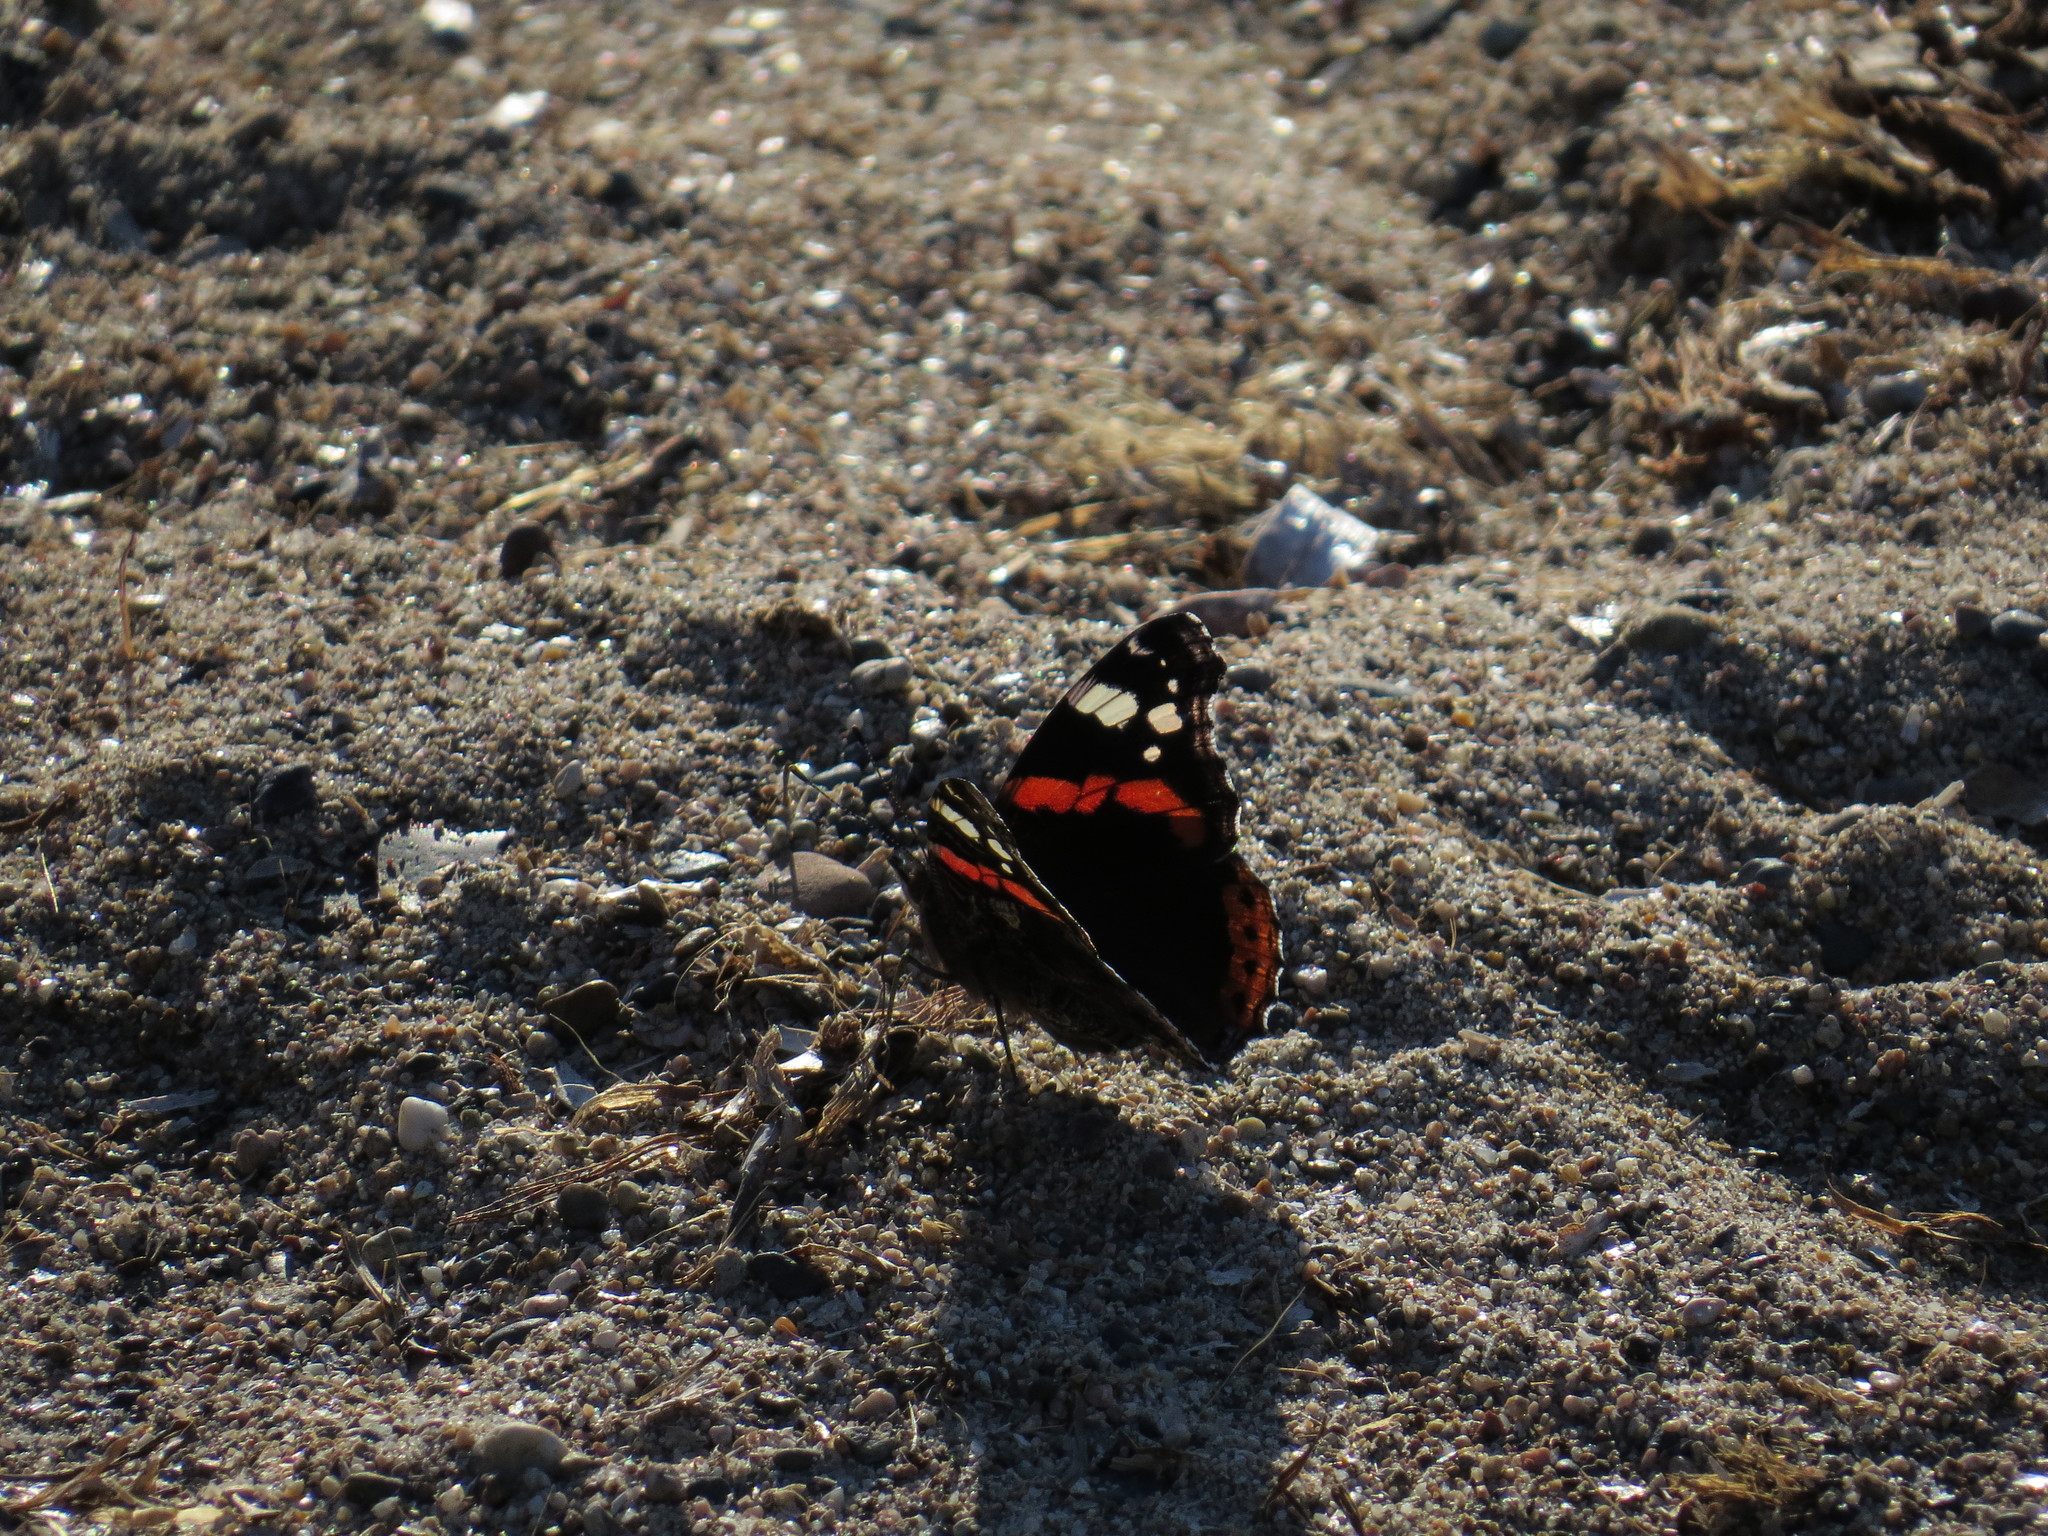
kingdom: Animalia
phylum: Arthropoda
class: Insecta
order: Lepidoptera
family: Nymphalidae
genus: Vanessa
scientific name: Vanessa atalanta
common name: Red admiral
